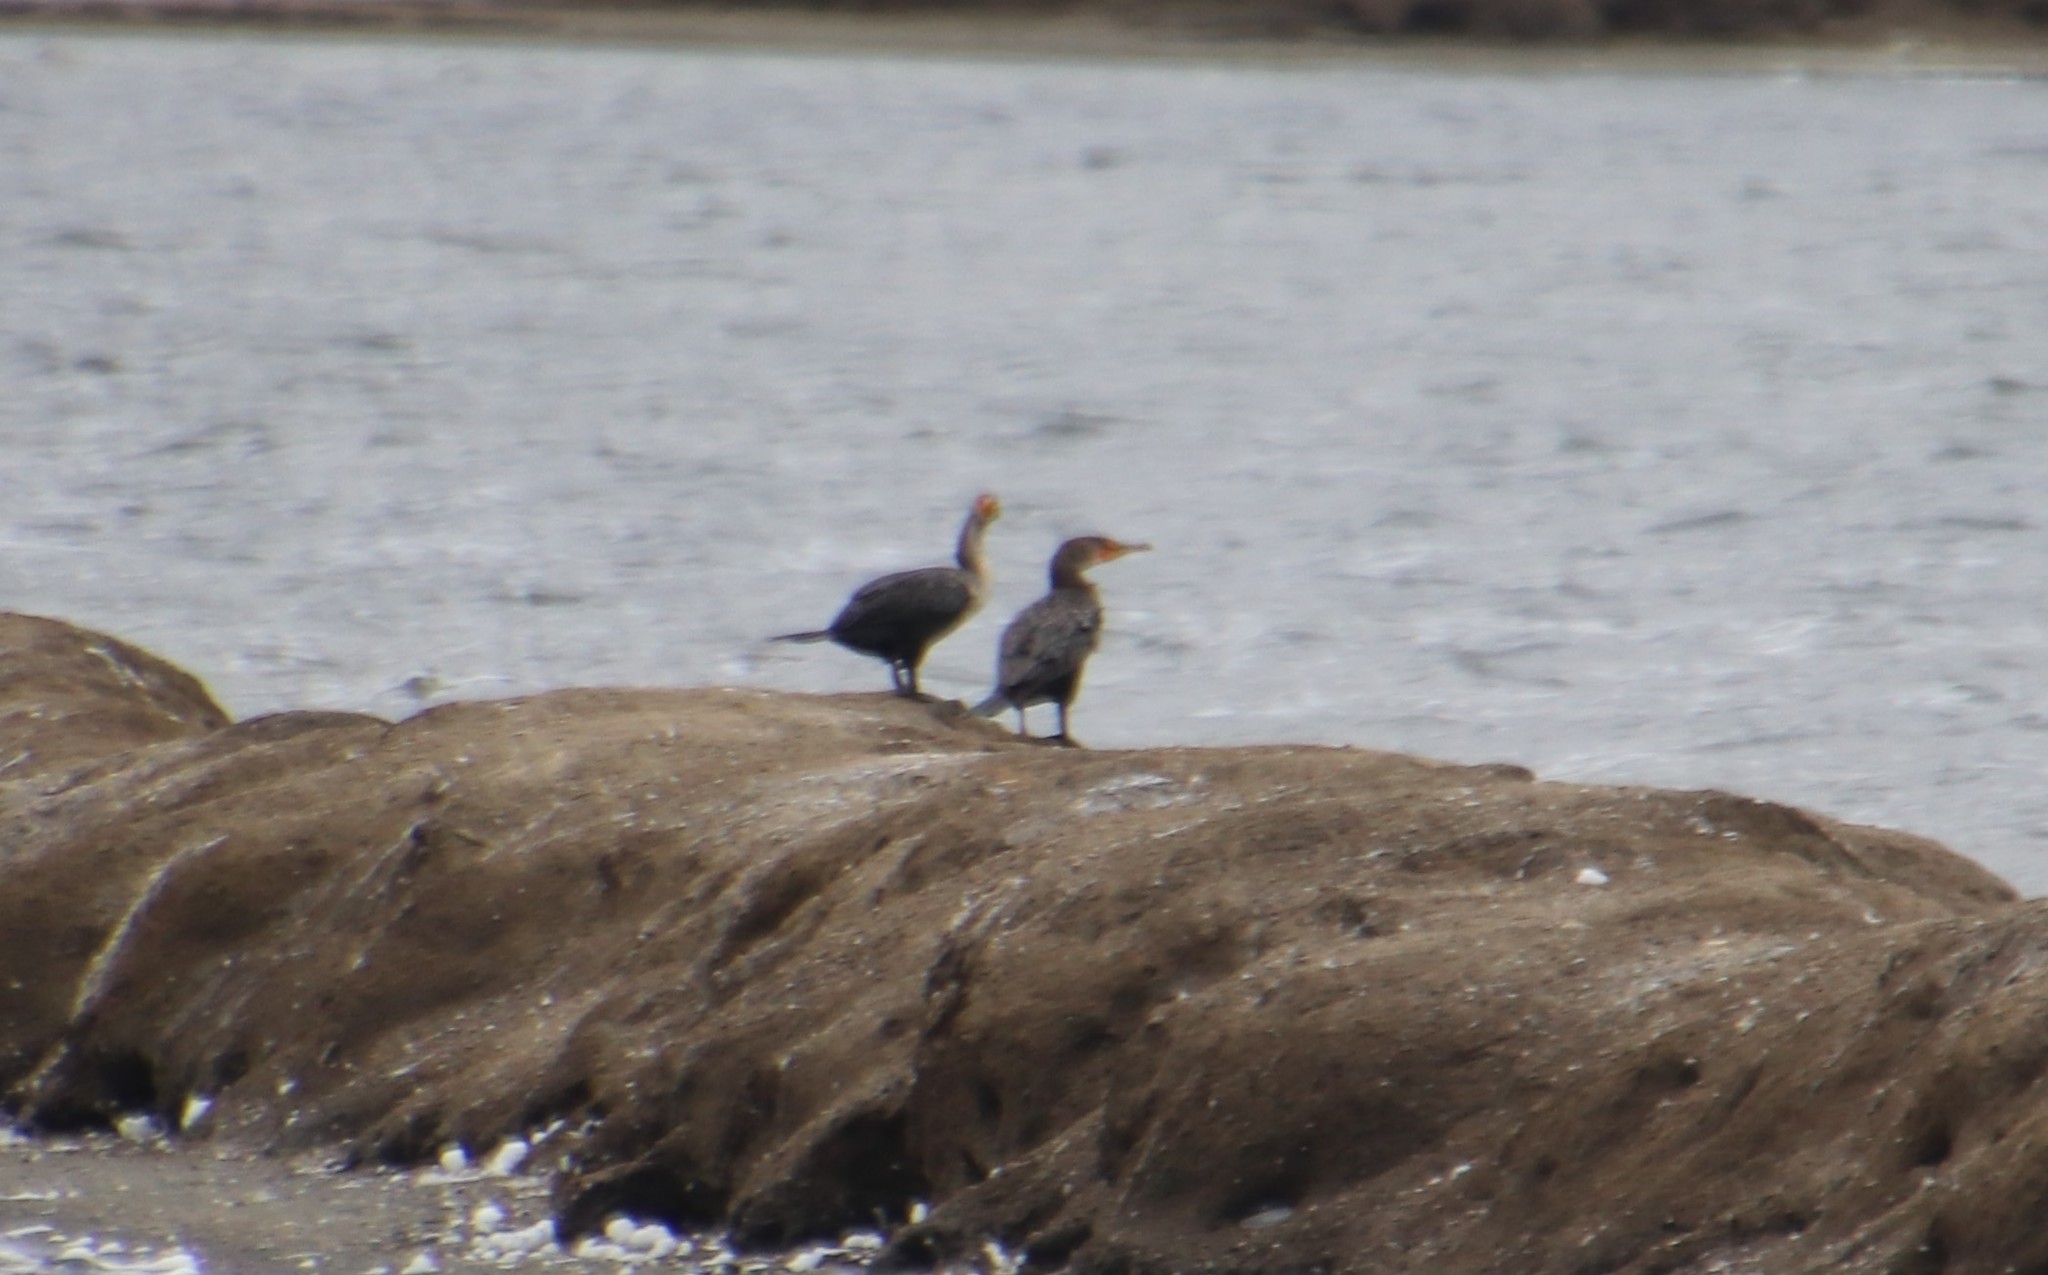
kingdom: Animalia
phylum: Chordata
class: Aves
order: Suliformes
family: Phalacrocoracidae
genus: Phalacrocorax
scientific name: Phalacrocorax auritus
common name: Double-crested cormorant
